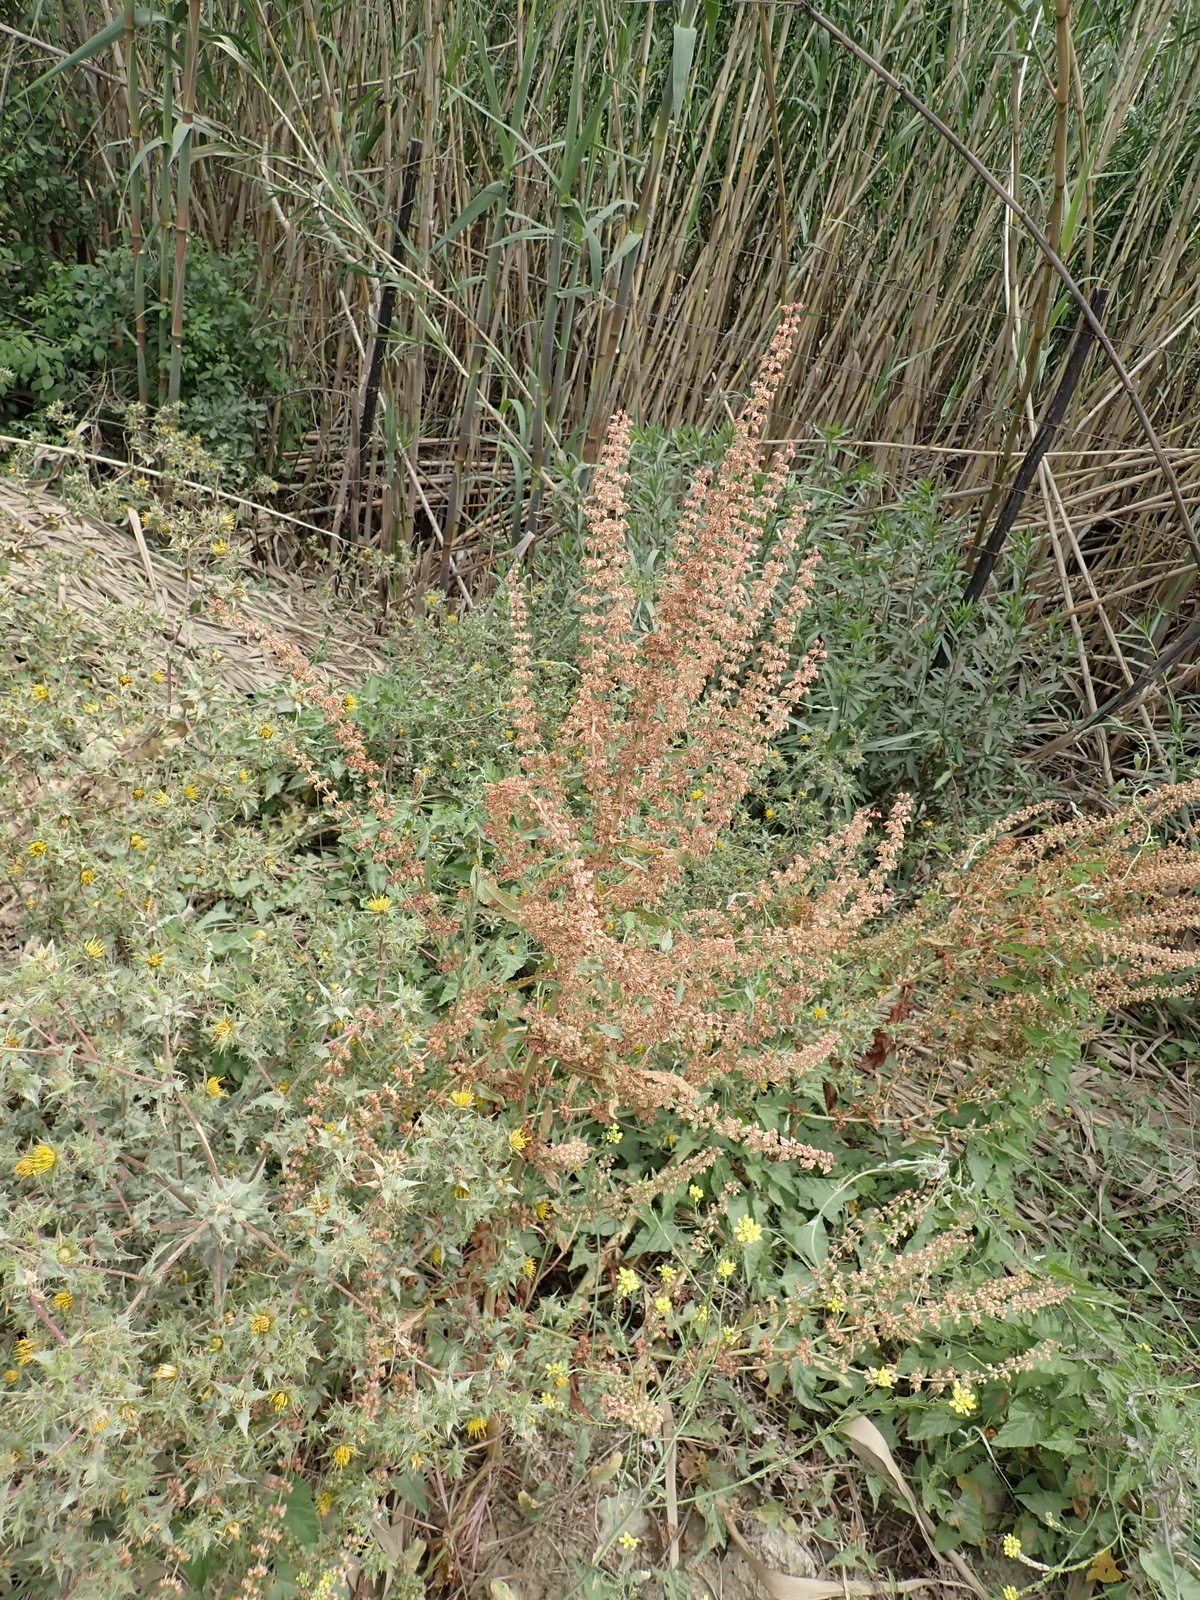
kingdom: Plantae
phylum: Tracheophyta
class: Magnoliopsida
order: Caryophyllales
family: Polygonaceae
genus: Rumex
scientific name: Rumex crispus
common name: Curled dock
